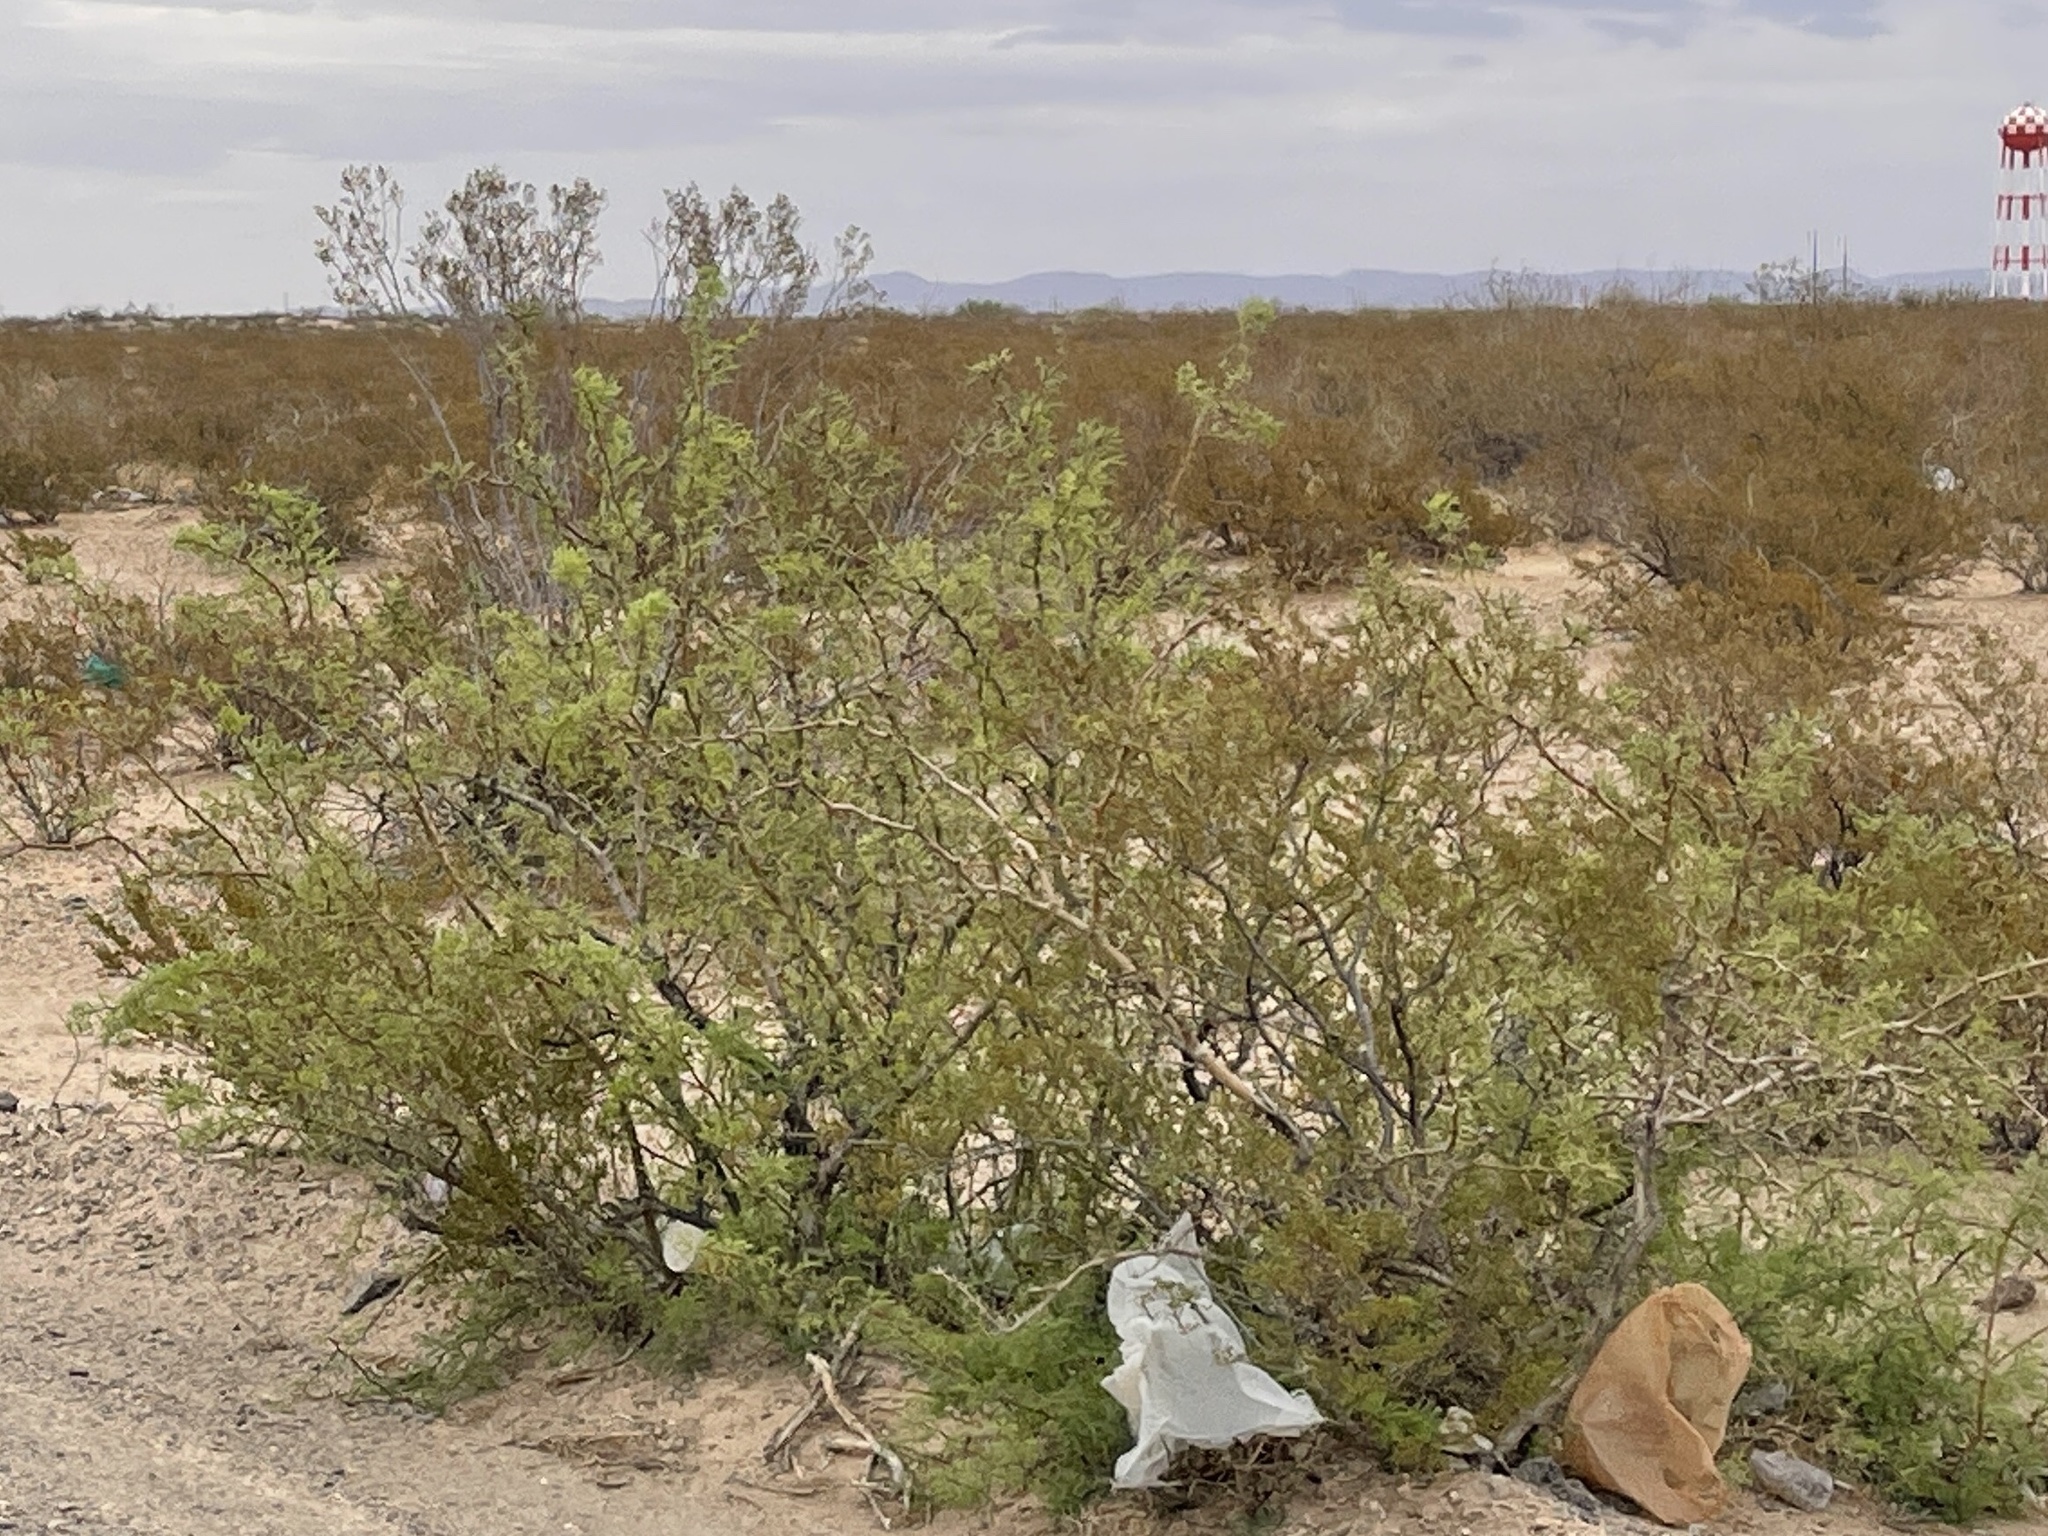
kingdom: Plantae
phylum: Tracheophyta
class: Magnoliopsida
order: Fabales
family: Fabaceae
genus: Prosopis
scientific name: Prosopis glandulosa
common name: Honey mesquite
